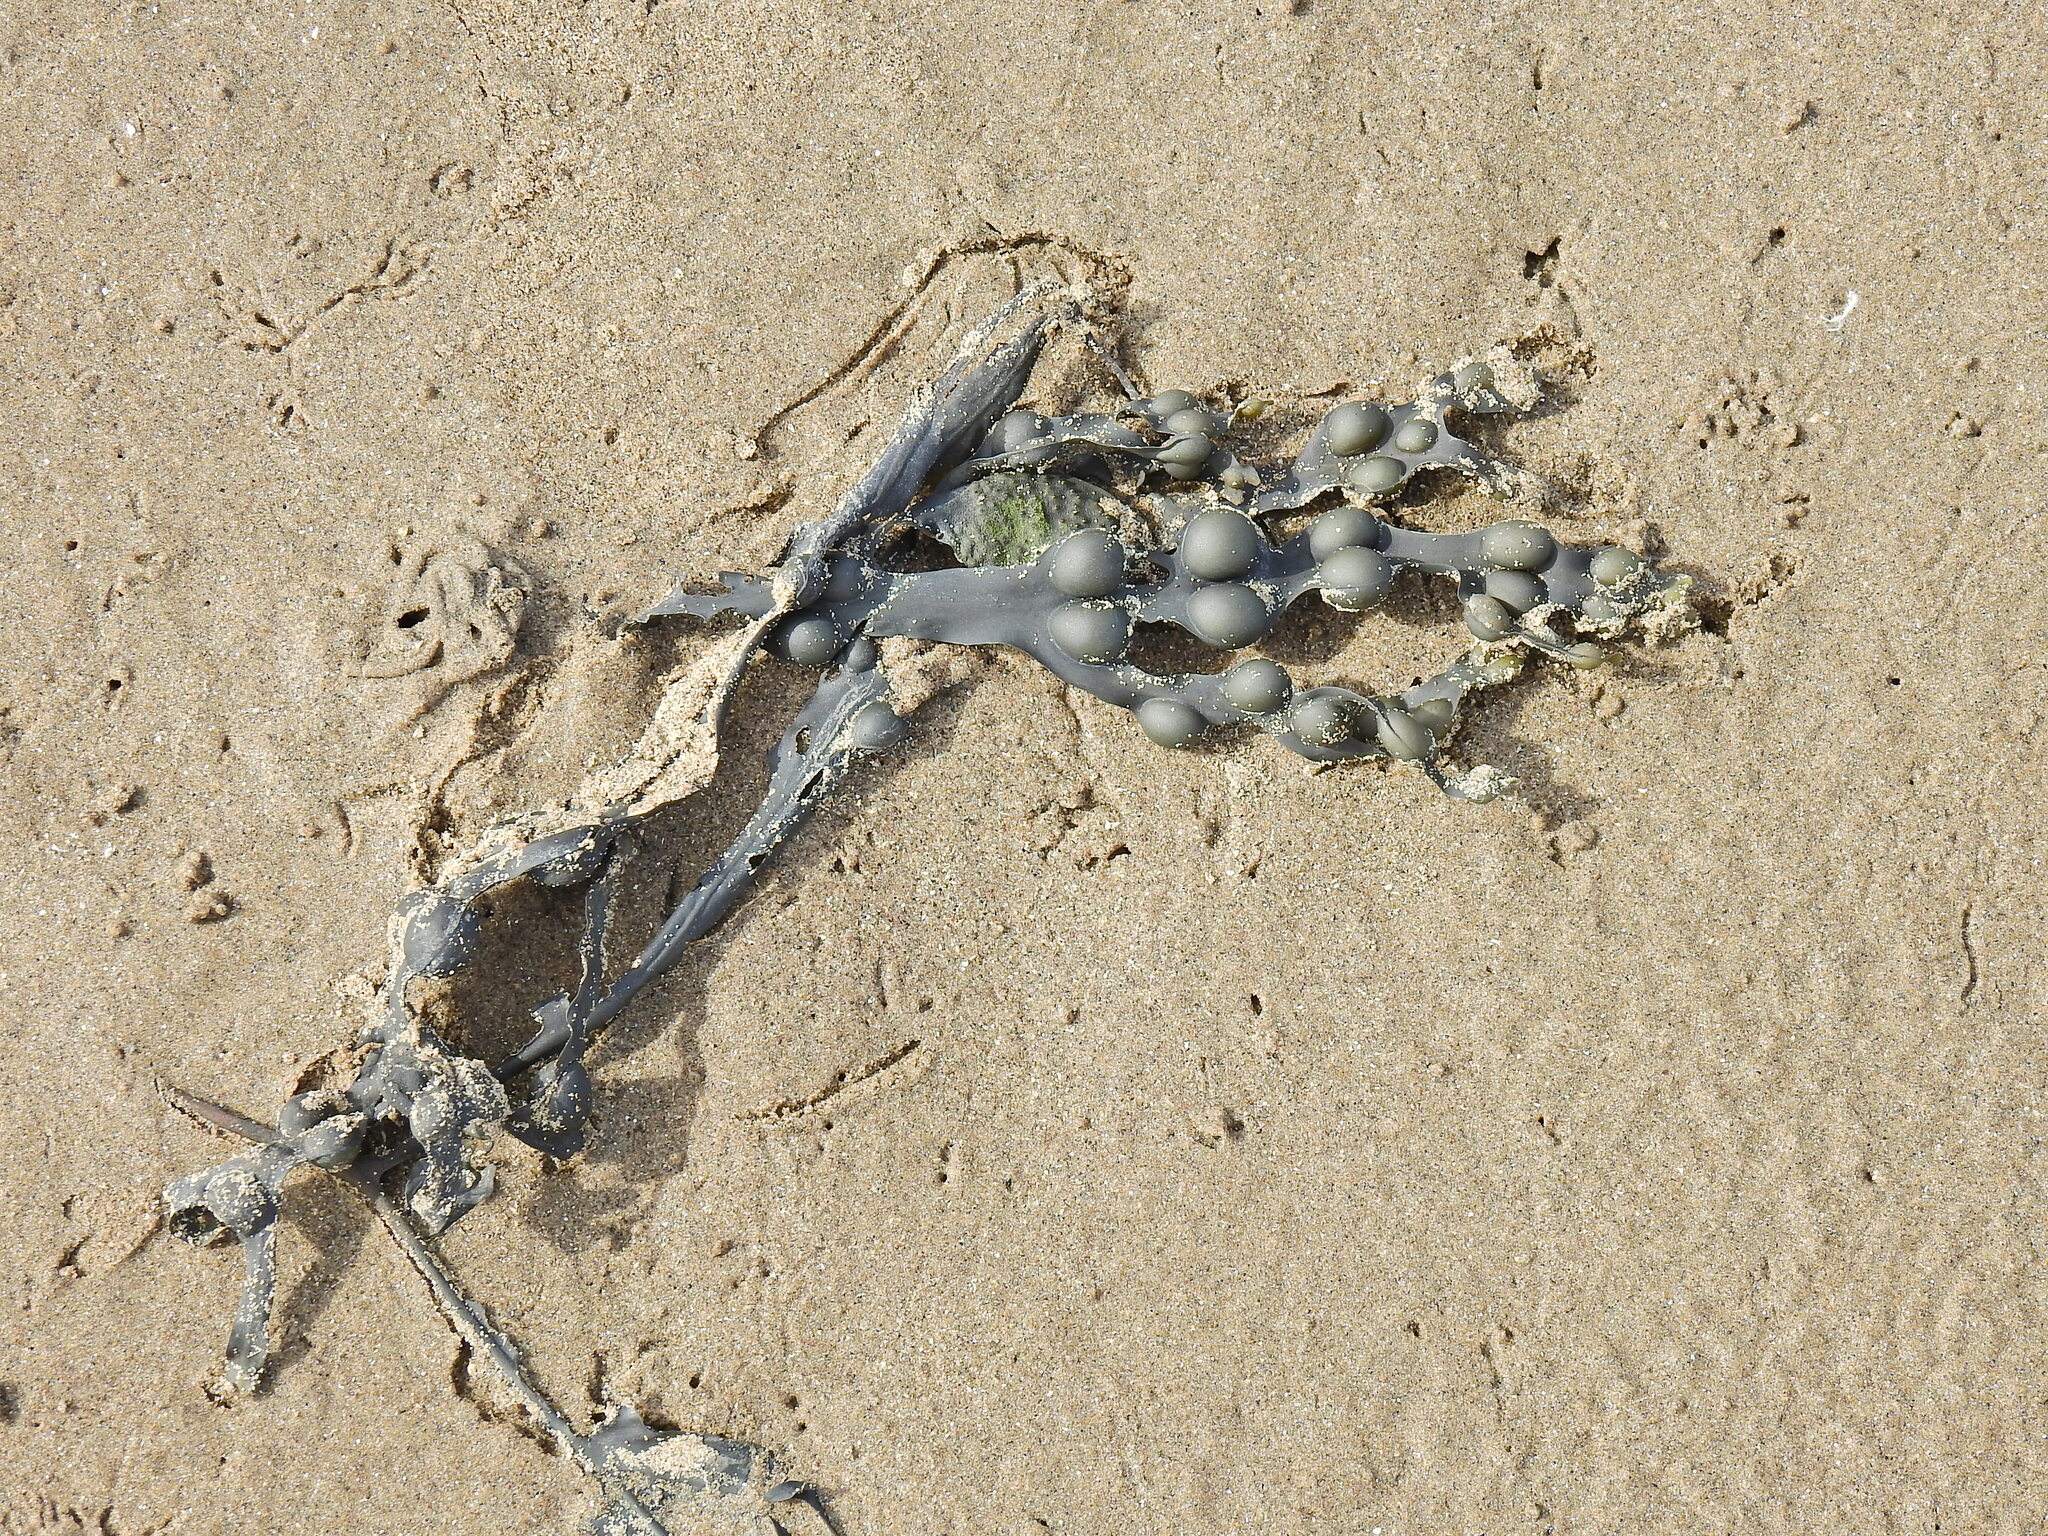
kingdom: Chromista
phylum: Ochrophyta
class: Phaeophyceae
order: Fucales
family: Fucaceae
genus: Fucus
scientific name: Fucus vesiculosus
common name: Bladder wrack
